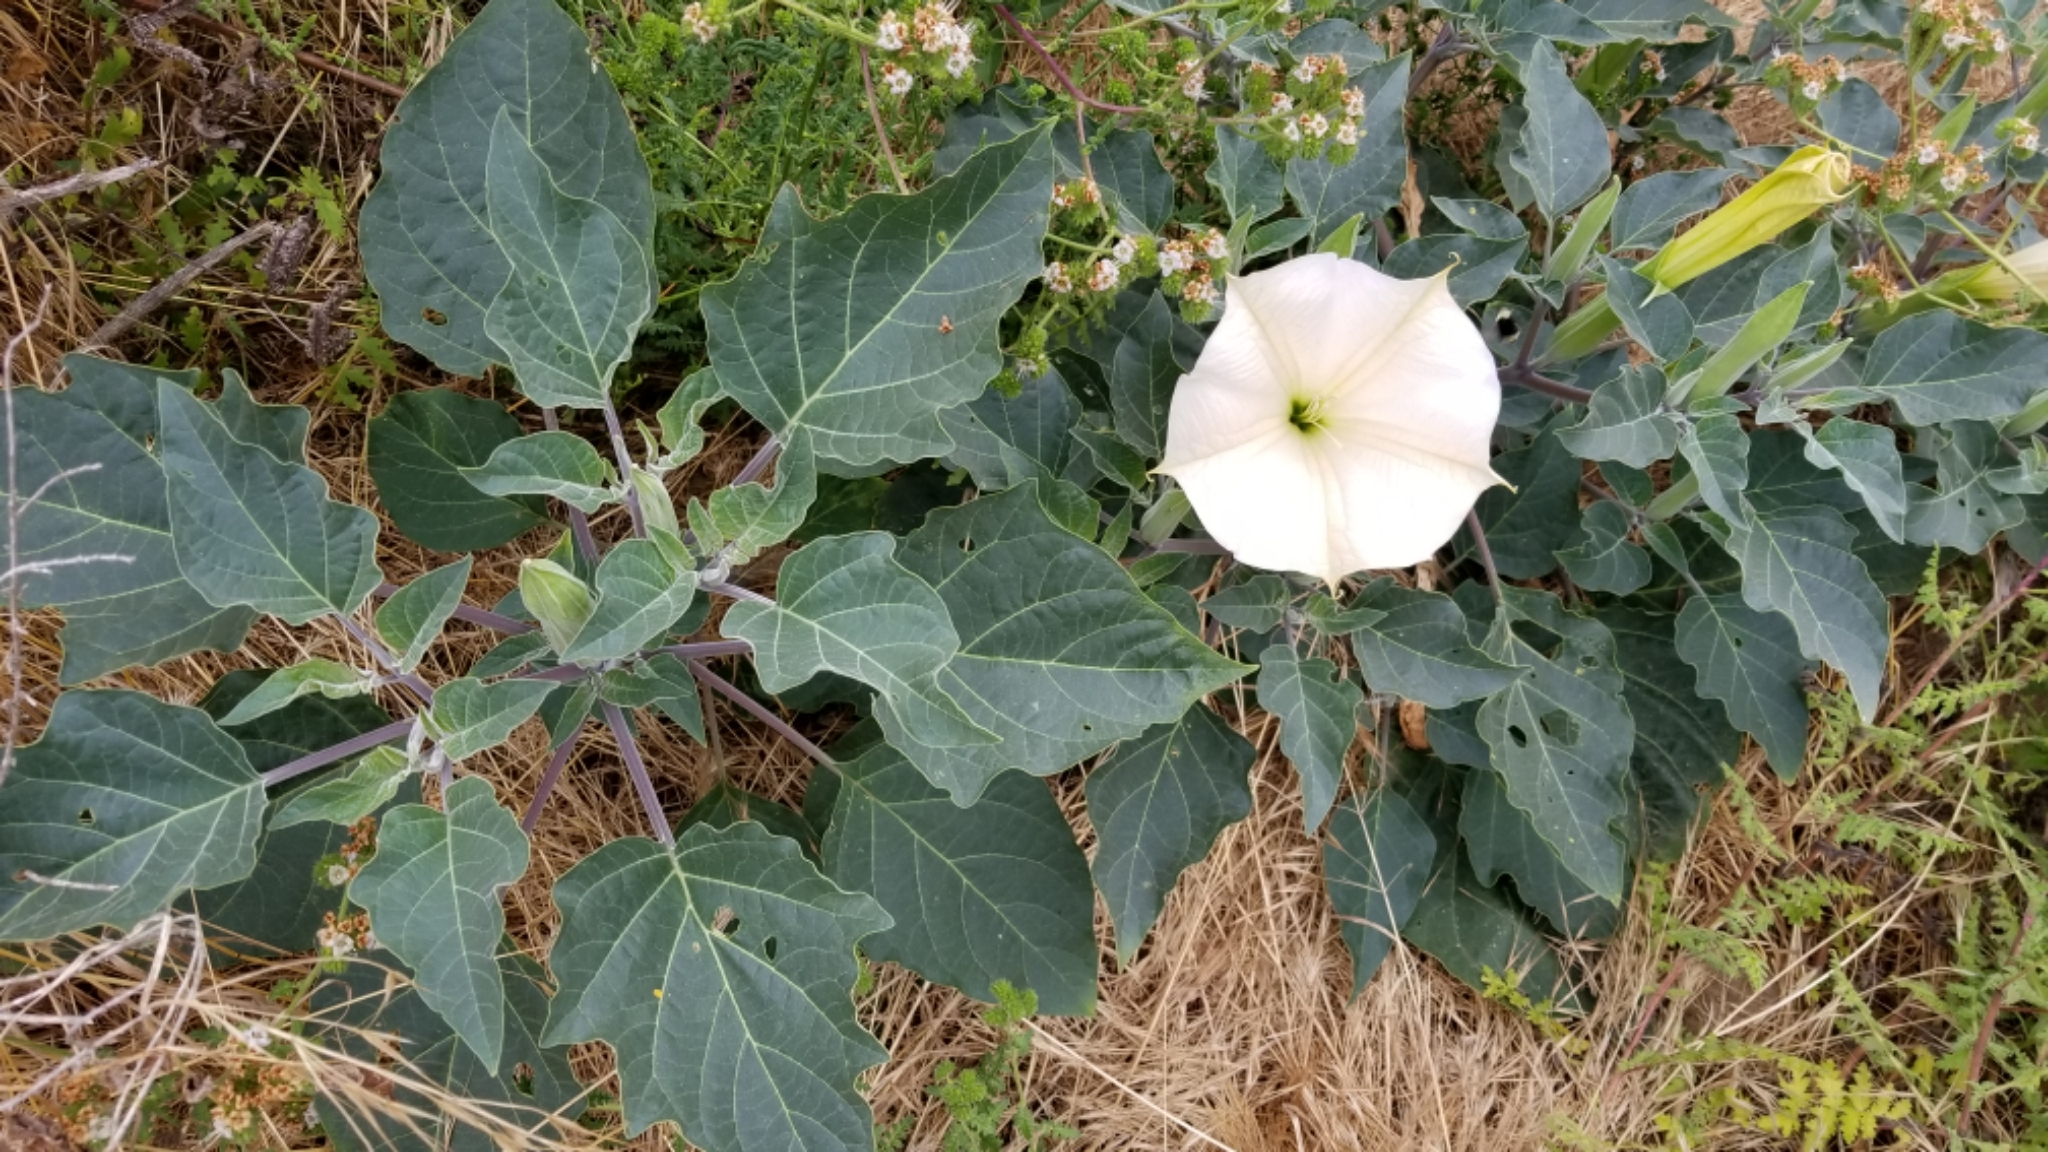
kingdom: Plantae
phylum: Tracheophyta
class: Magnoliopsida
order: Solanales
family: Solanaceae
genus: Datura
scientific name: Datura wrightii
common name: Sacred thorn-apple
